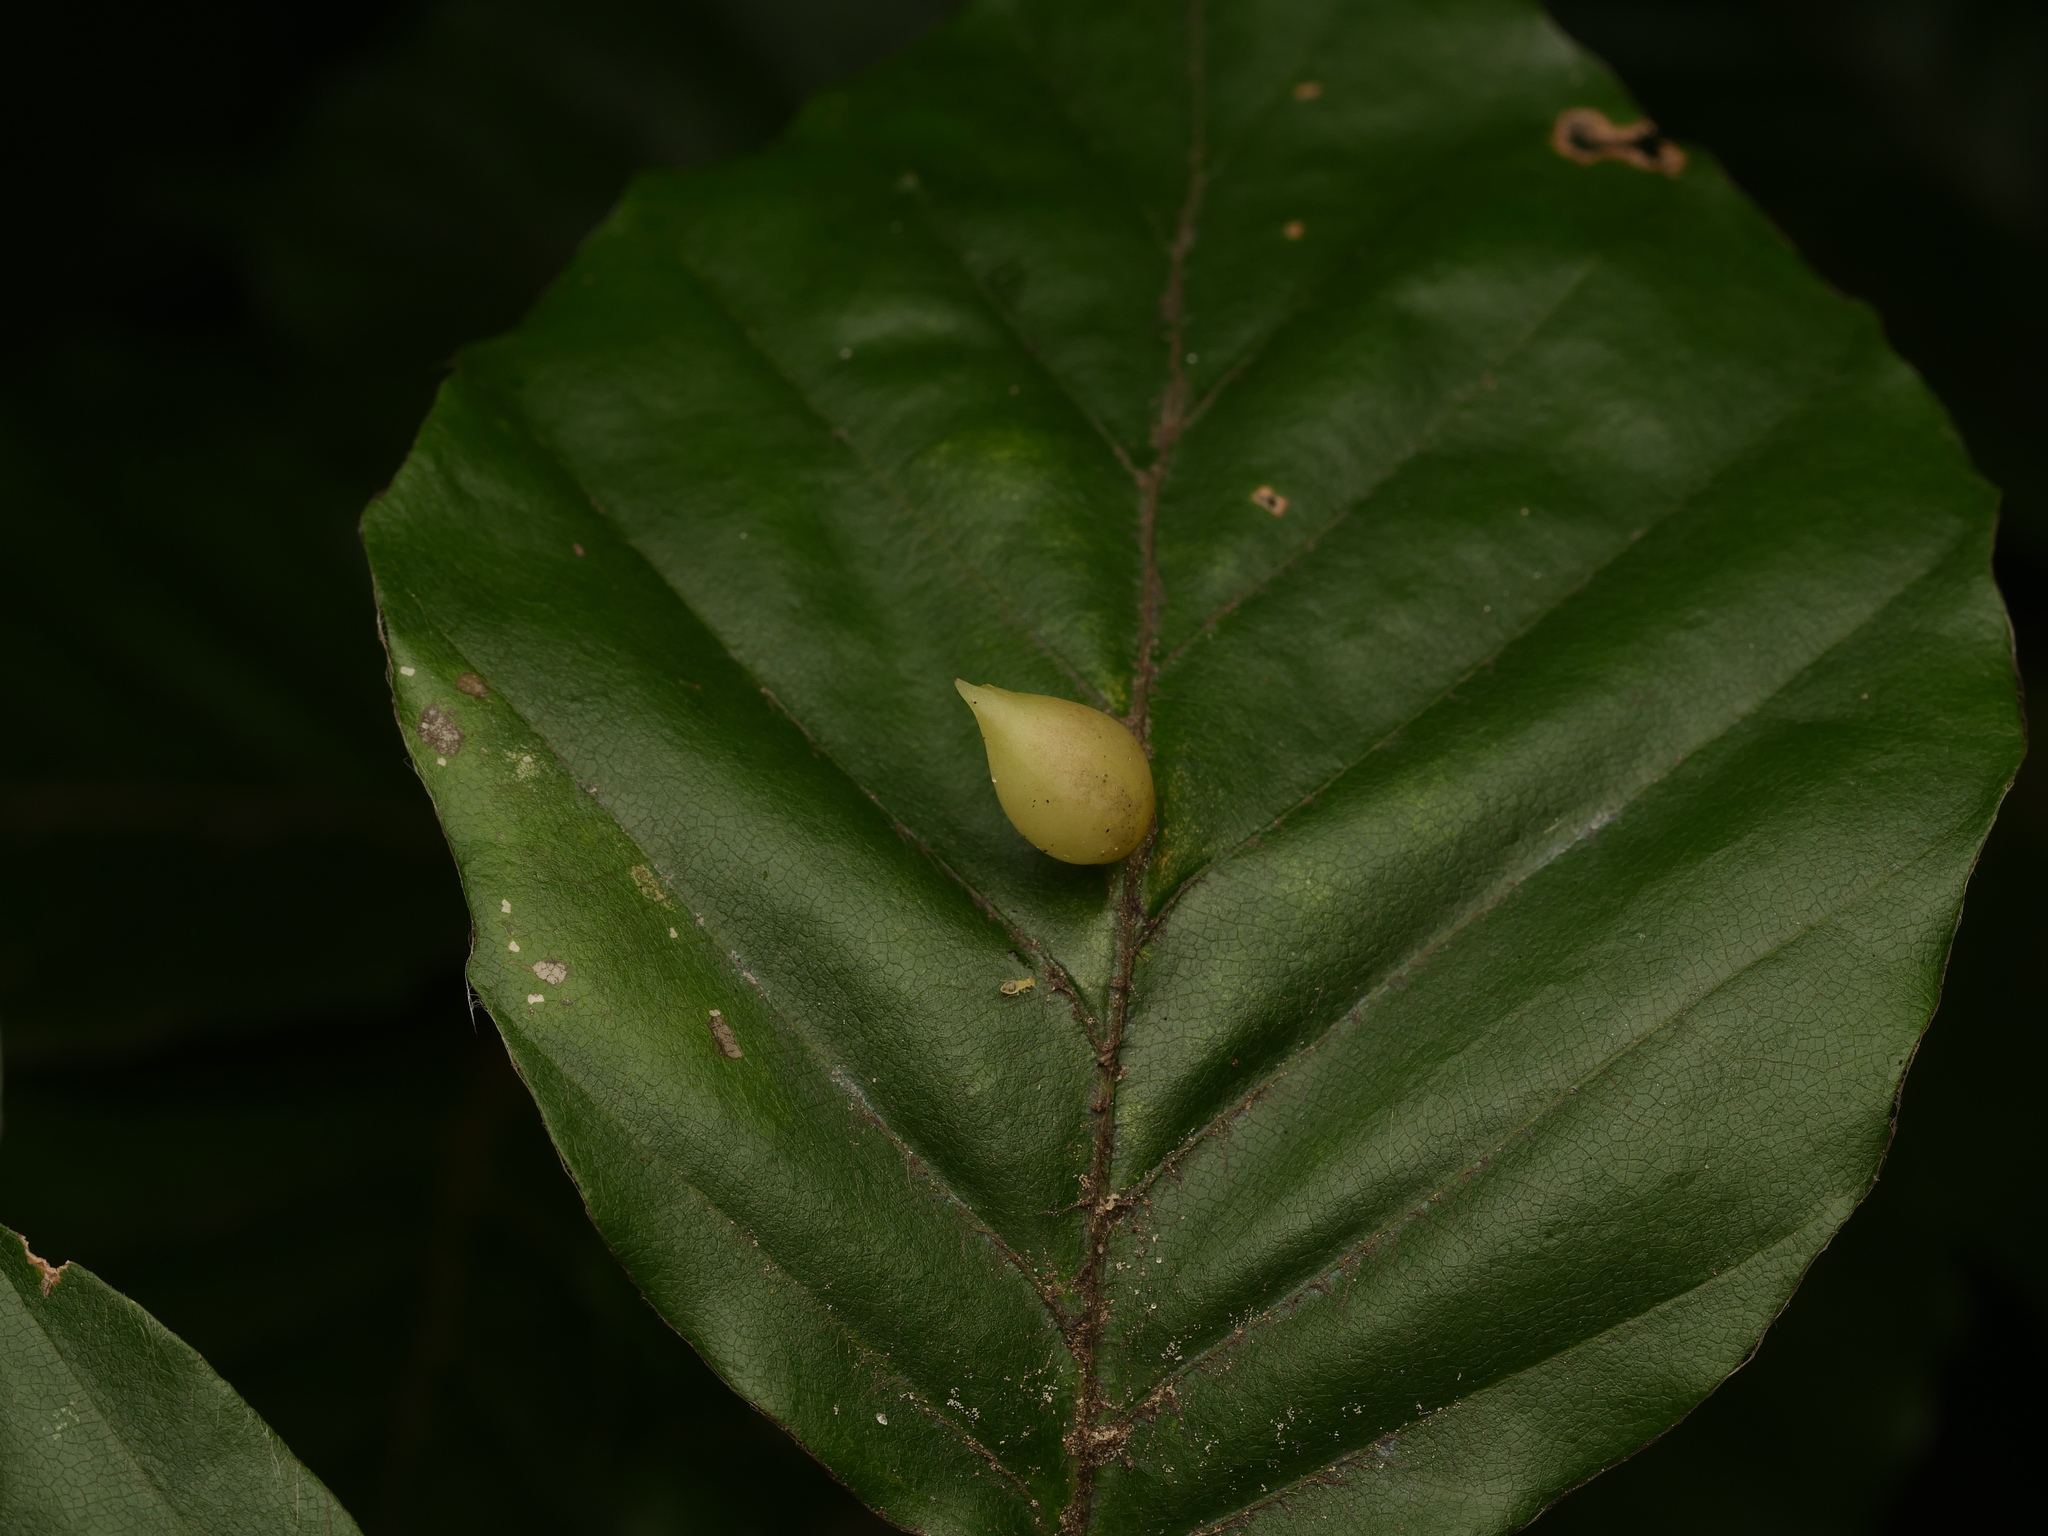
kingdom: Animalia
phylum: Arthropoda
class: Insecta
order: Diptera
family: Cecidomyiidae
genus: Mikiola
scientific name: Mikiola fagi
